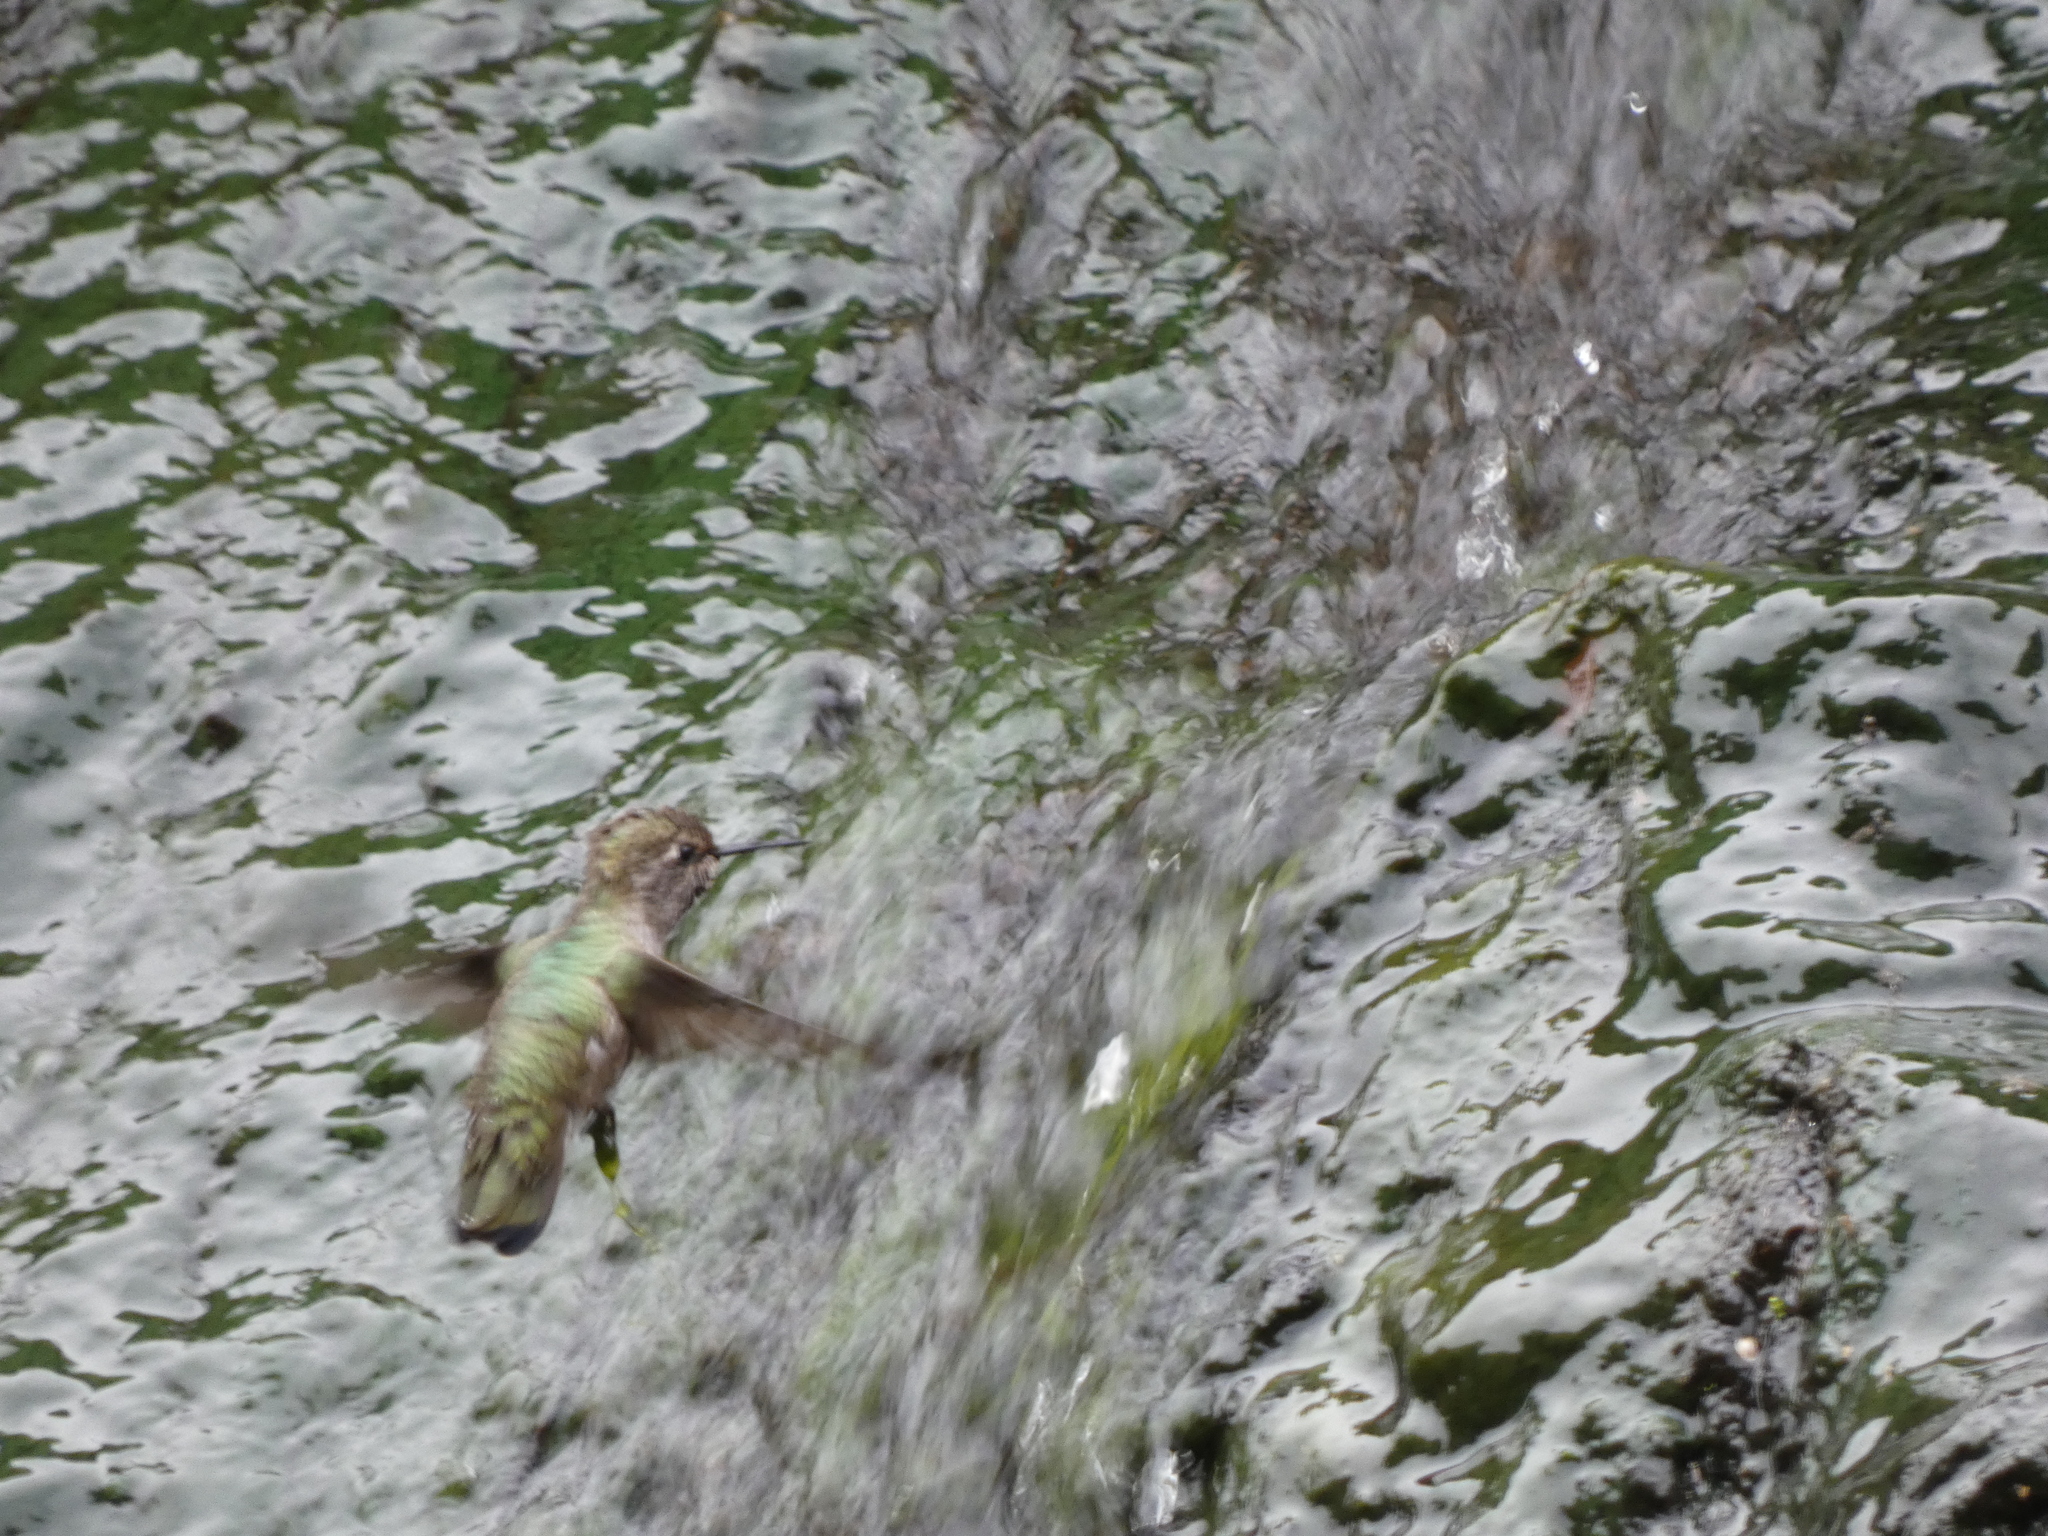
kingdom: Animalia
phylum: Chordata
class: Aves
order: Apodiformes
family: Trochilidae
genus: Calypte
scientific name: Calypte anna
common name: Anna's hummingbird
